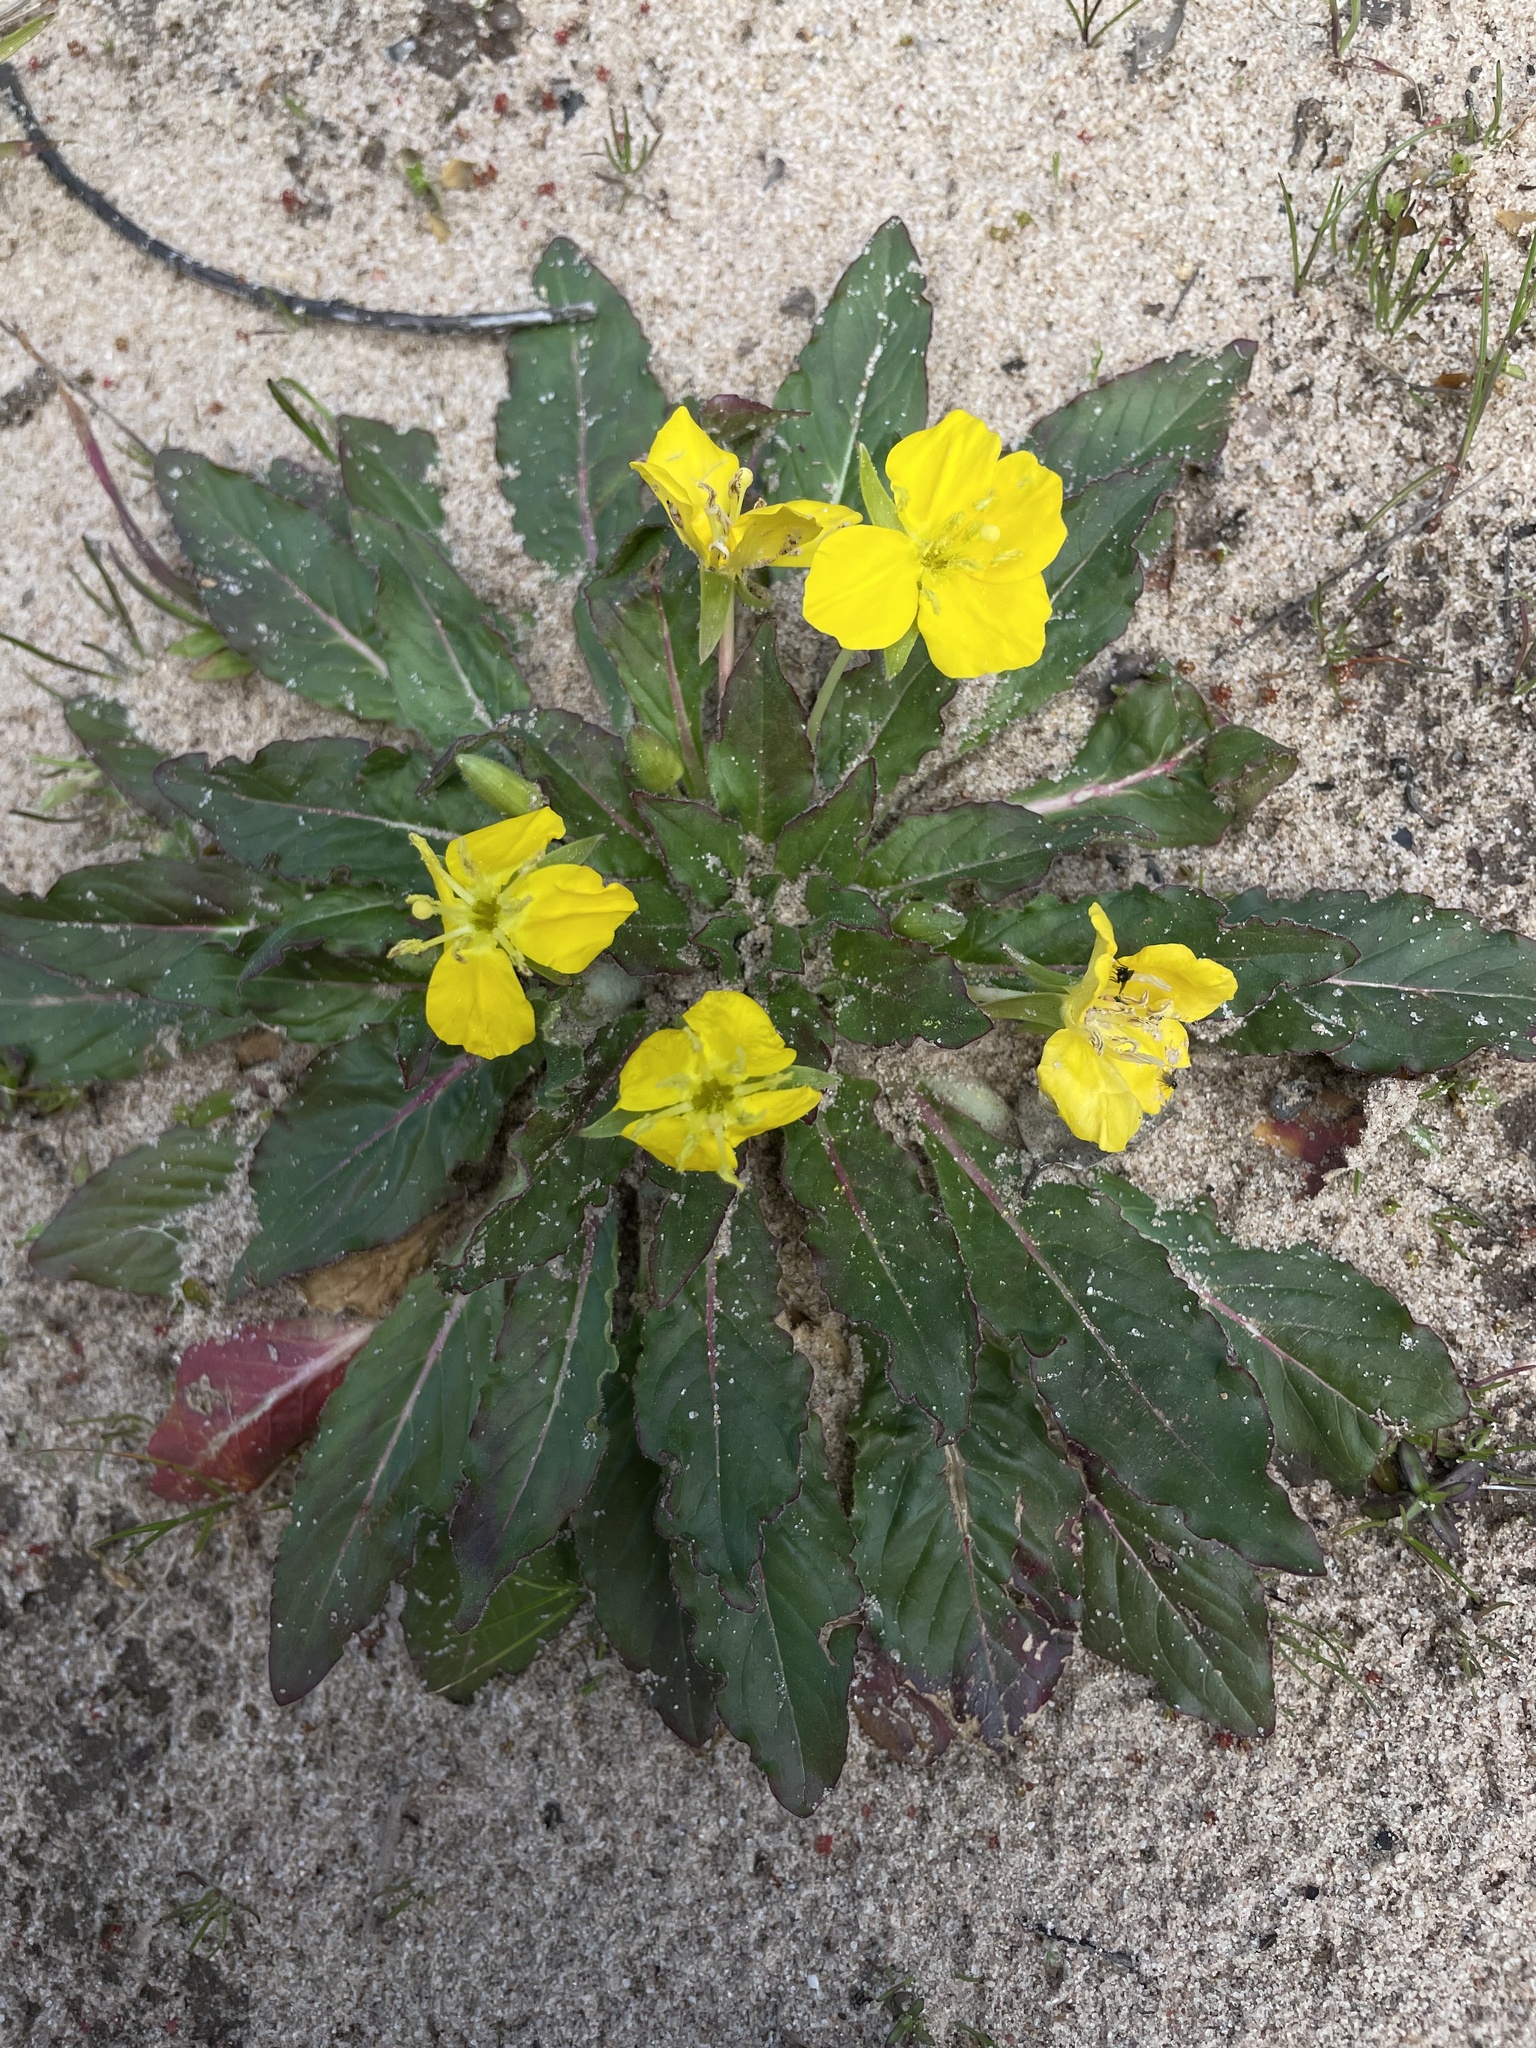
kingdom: Plantae
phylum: Tracheophyta
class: Magnoliopsida
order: Myrtales
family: Onagraceae
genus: Taraxia
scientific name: Taraxia ovata
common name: Goldeneggs
